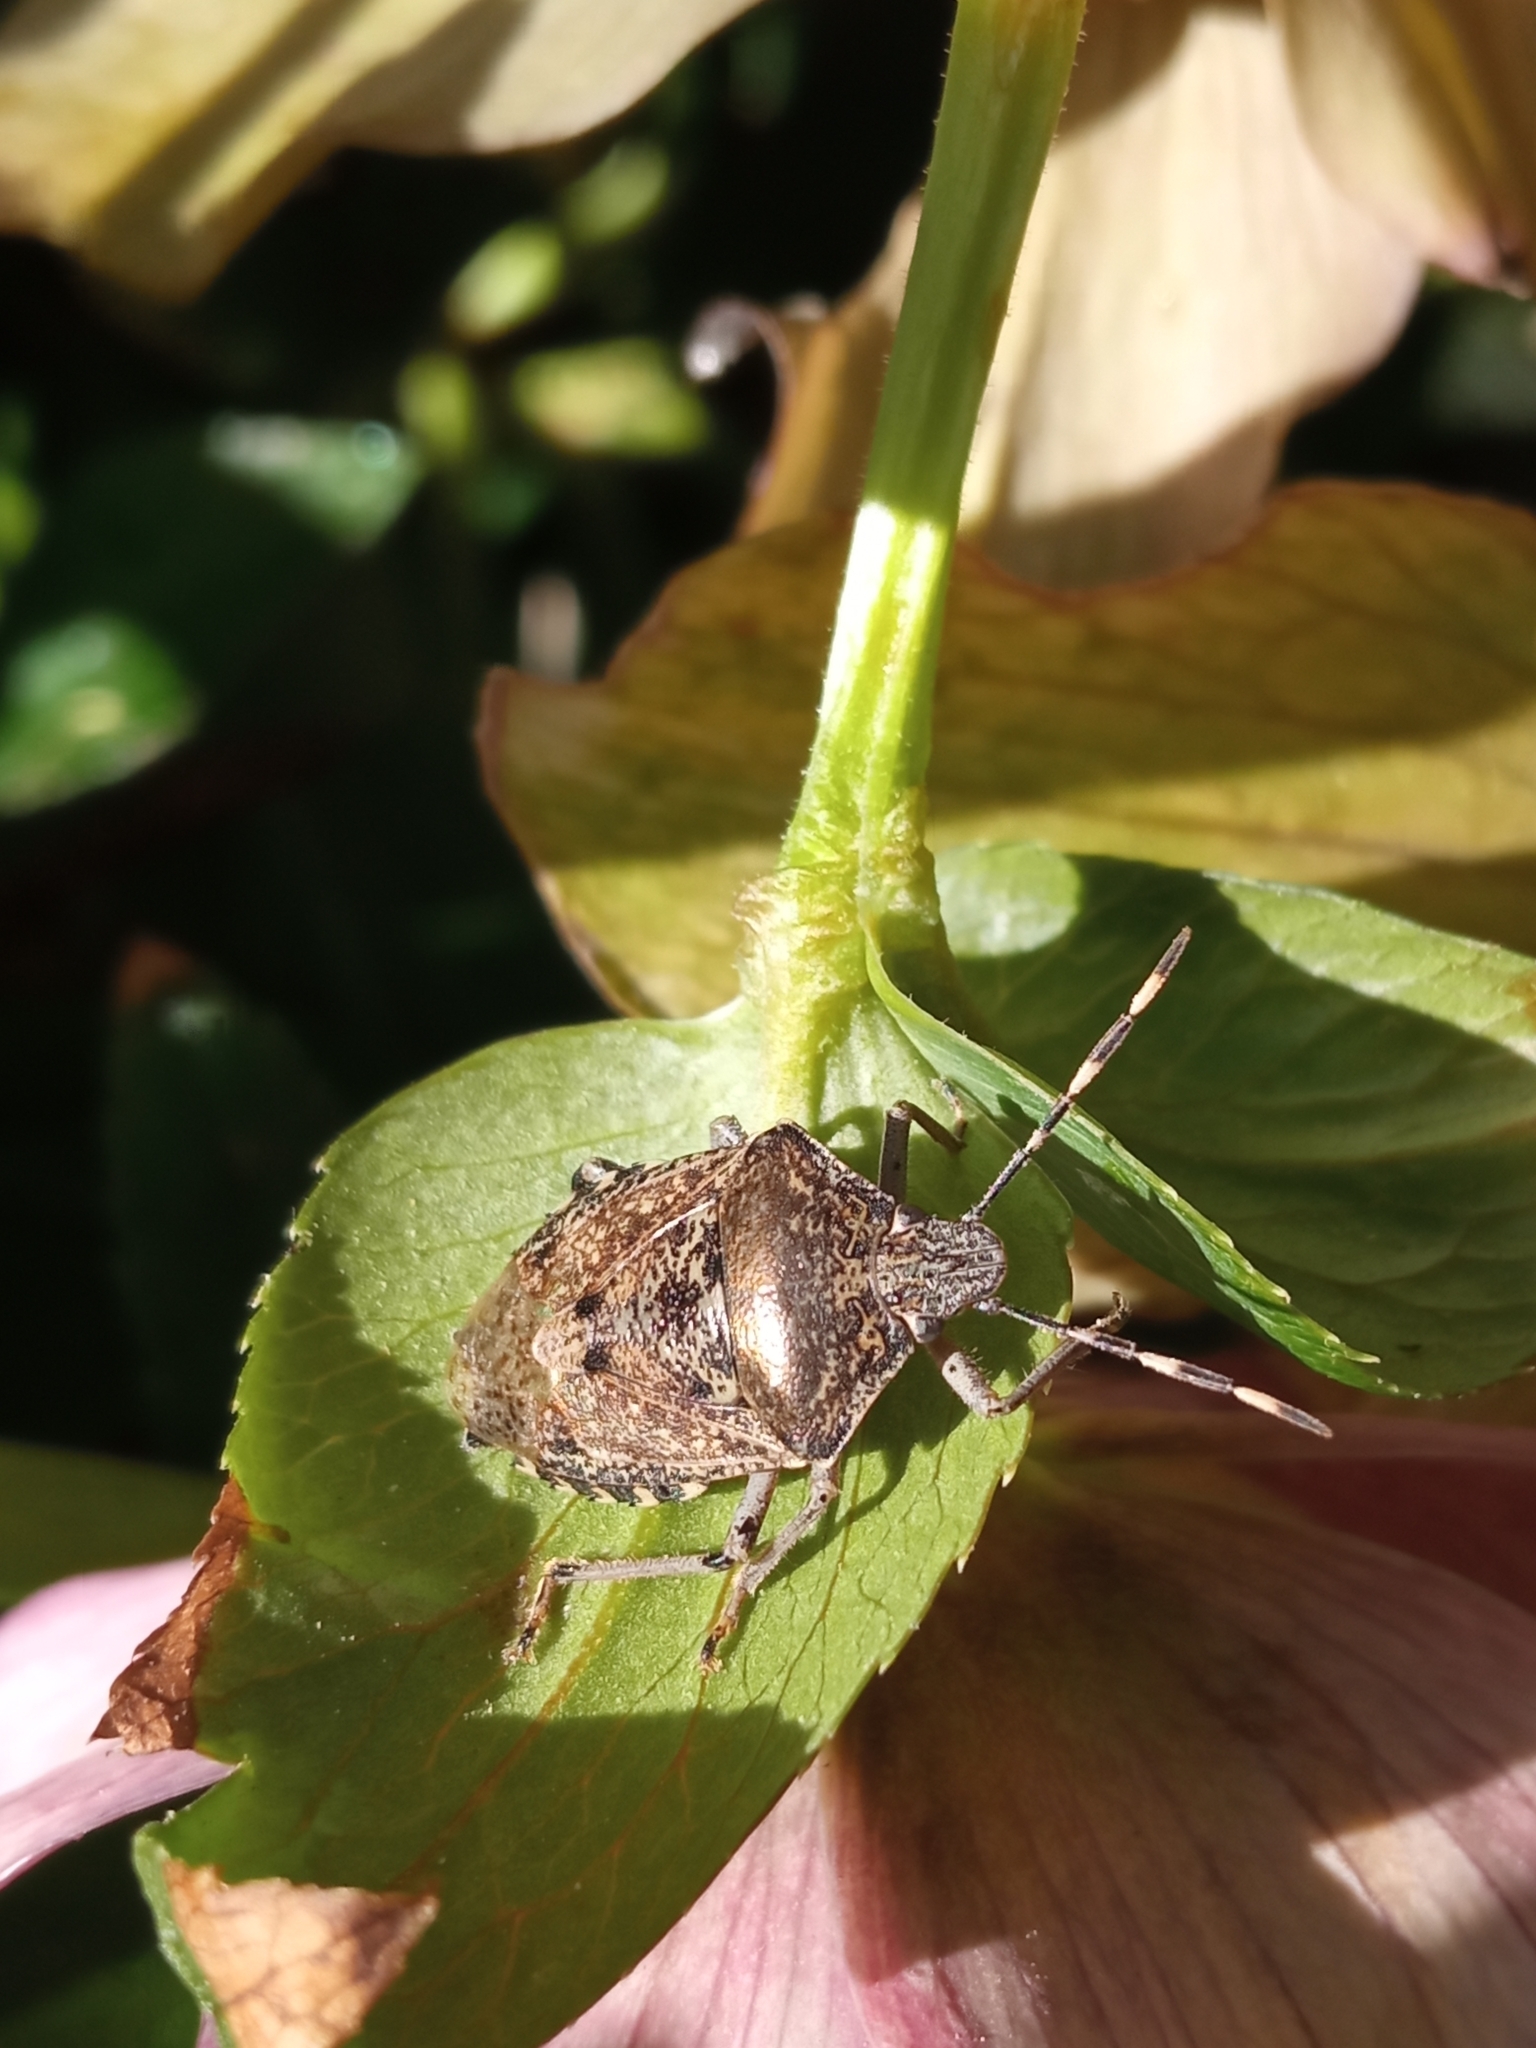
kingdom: Animalia
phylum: Arthropoda
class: Insecta
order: Hemiptera
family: Pentatomidae
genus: Rhaphigaster
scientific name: Rhaphigaster nebulosa
